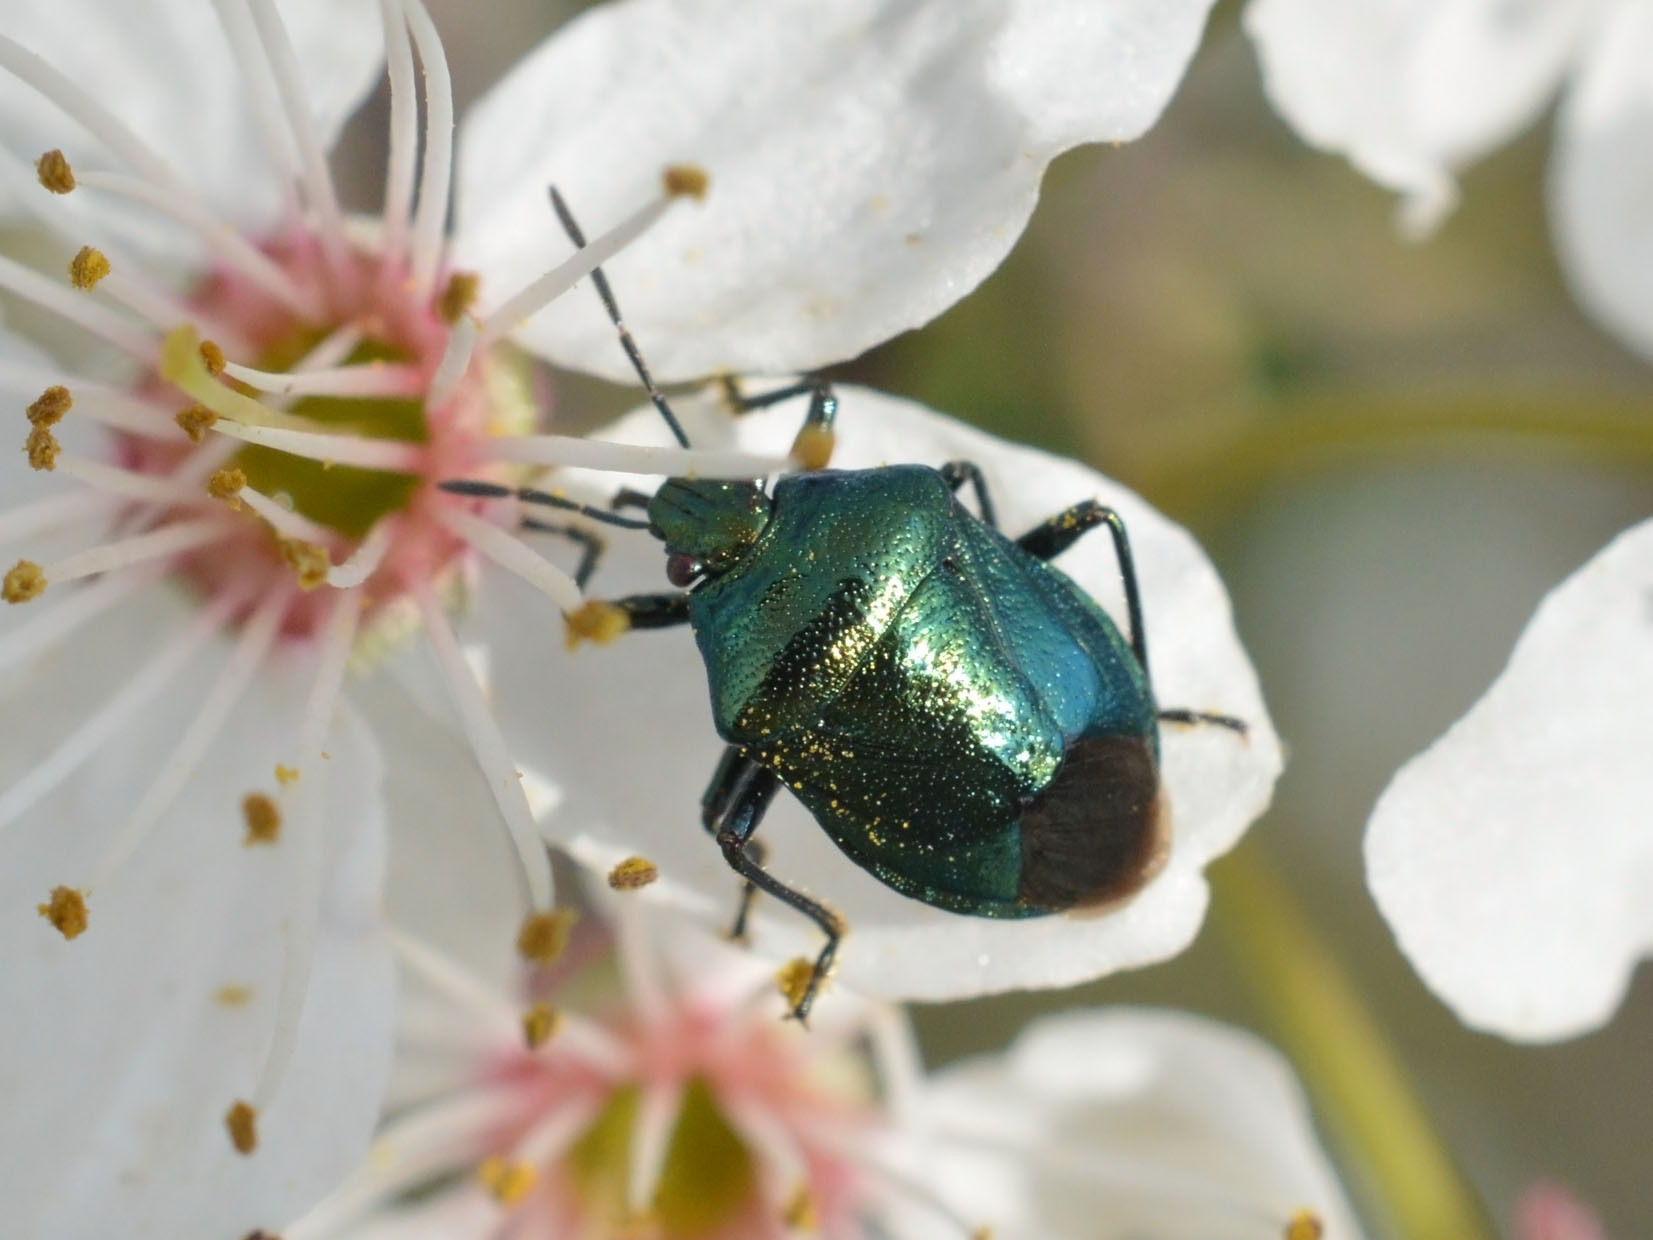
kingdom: Animalia
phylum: Arthropoda
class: Insecta
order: Hemiptera
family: Pentatomidae
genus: Zicrona
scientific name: Zicrona caerulea
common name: Blue shieldbug
